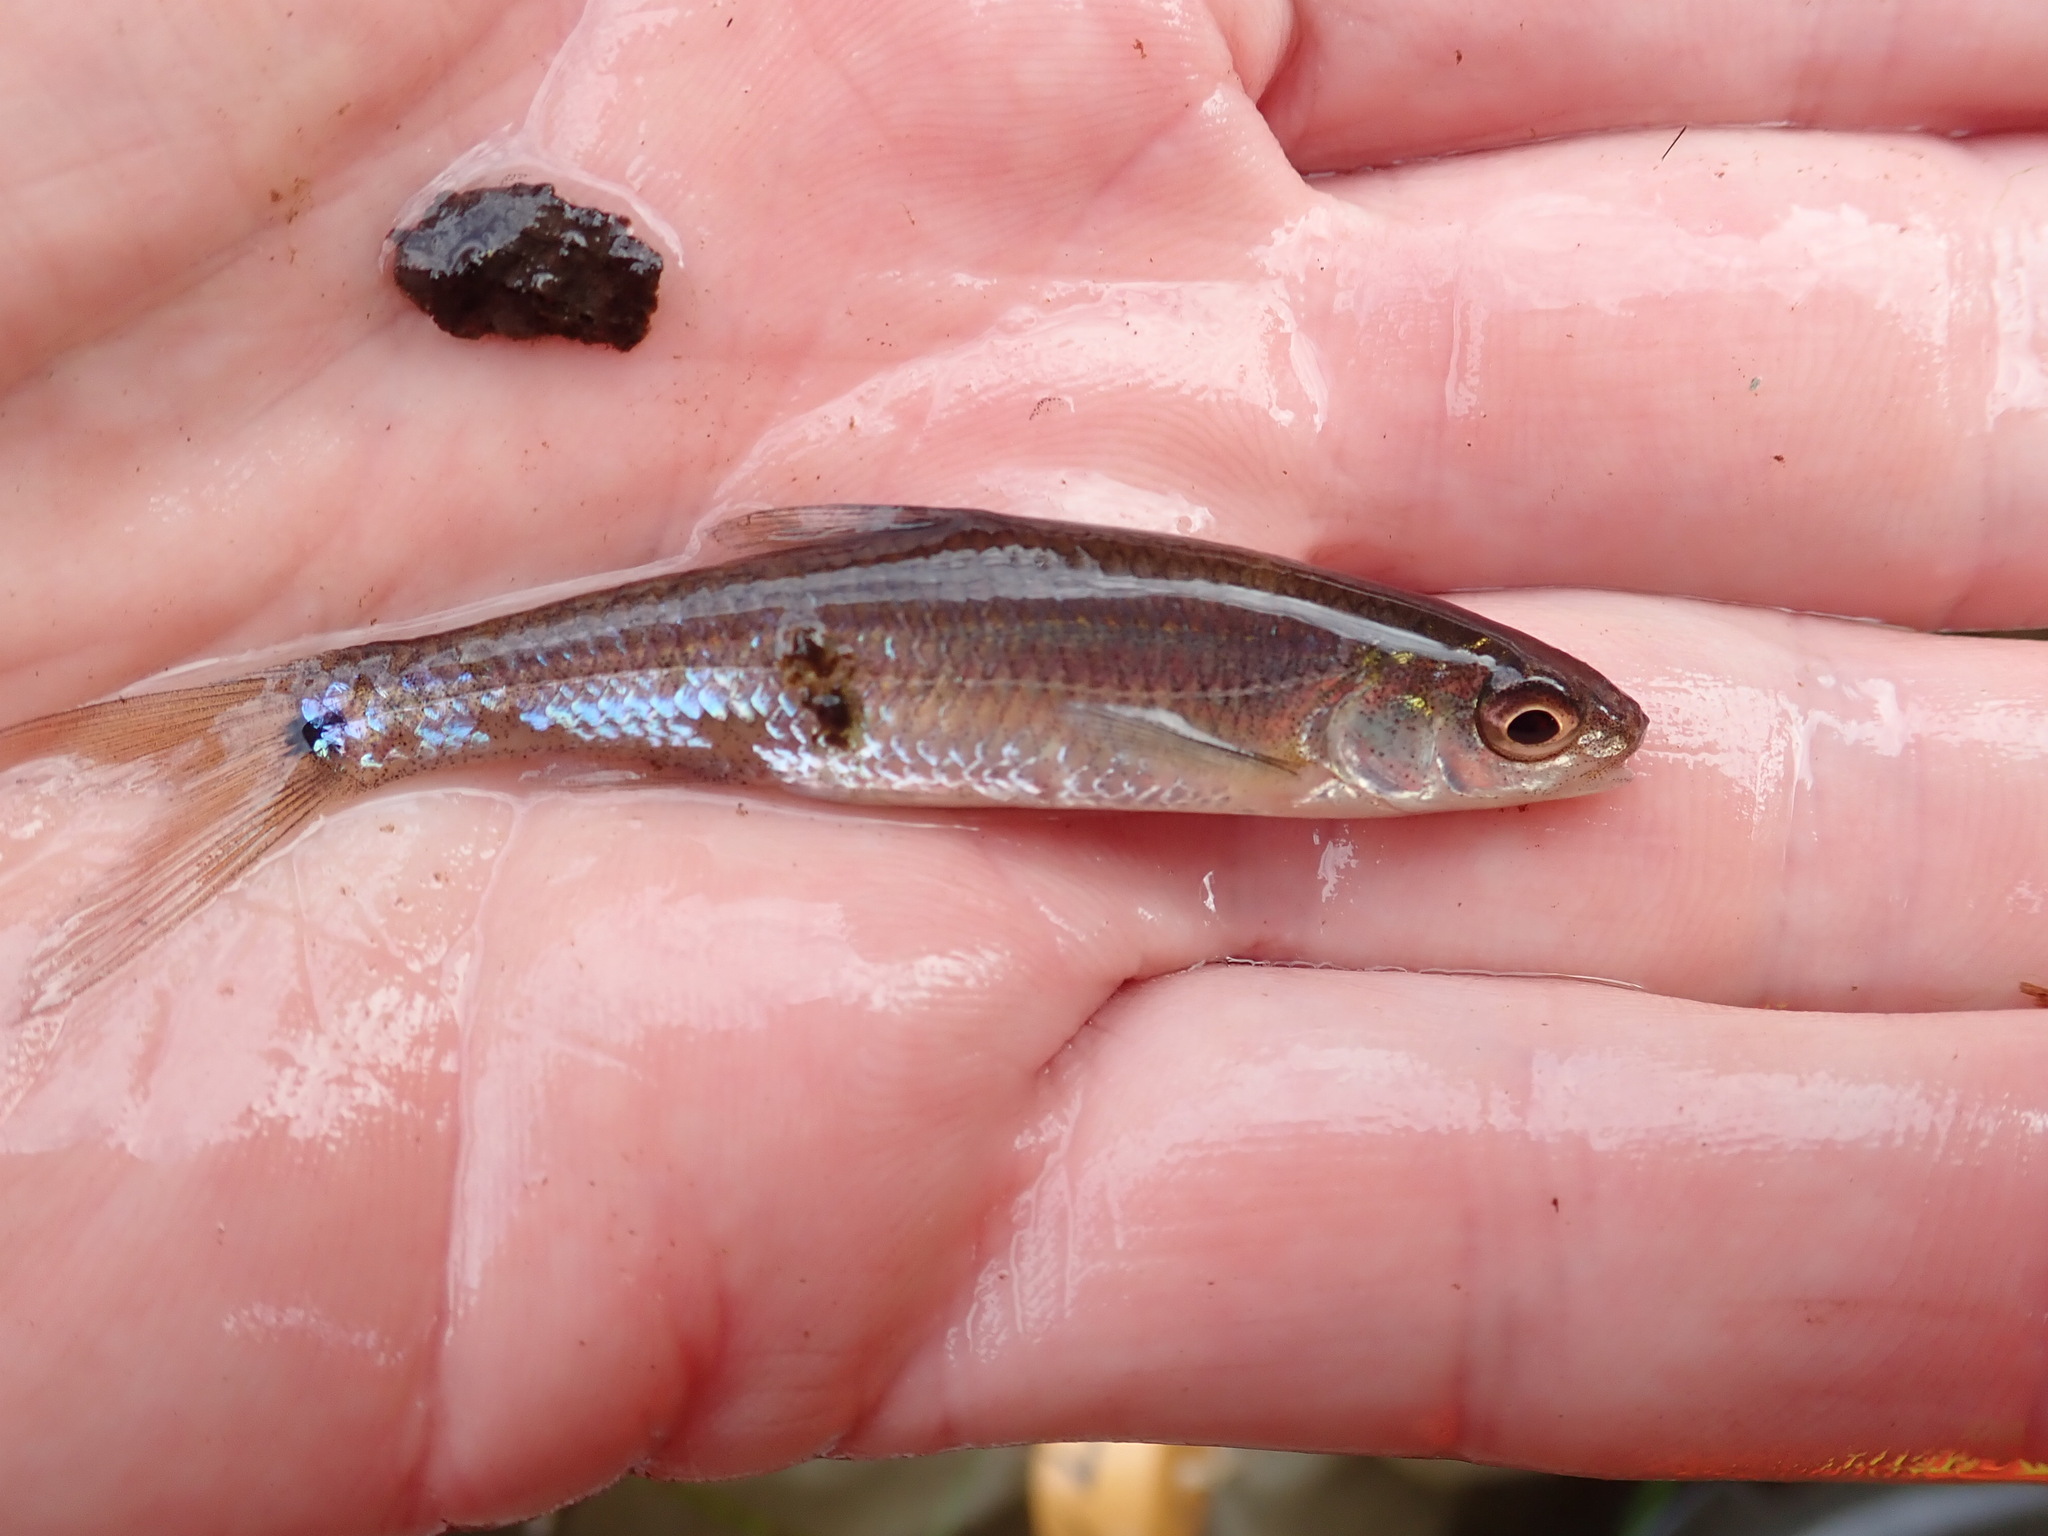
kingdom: Animalia
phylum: Chordata
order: Cypriniformes
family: Cyprinidae
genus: Notropis
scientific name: Notropis
